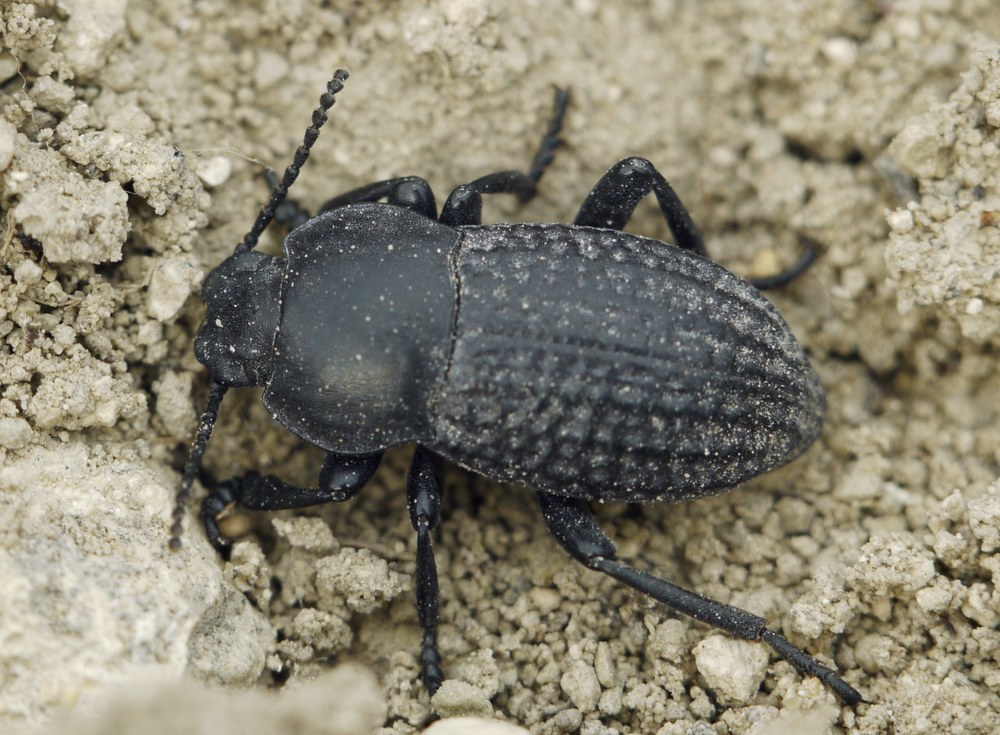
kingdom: Animalia
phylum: Arthropoda
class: Insecta
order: Coleoptera
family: Tenebrionidae
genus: Dendarus
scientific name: Dendarus punctatus
